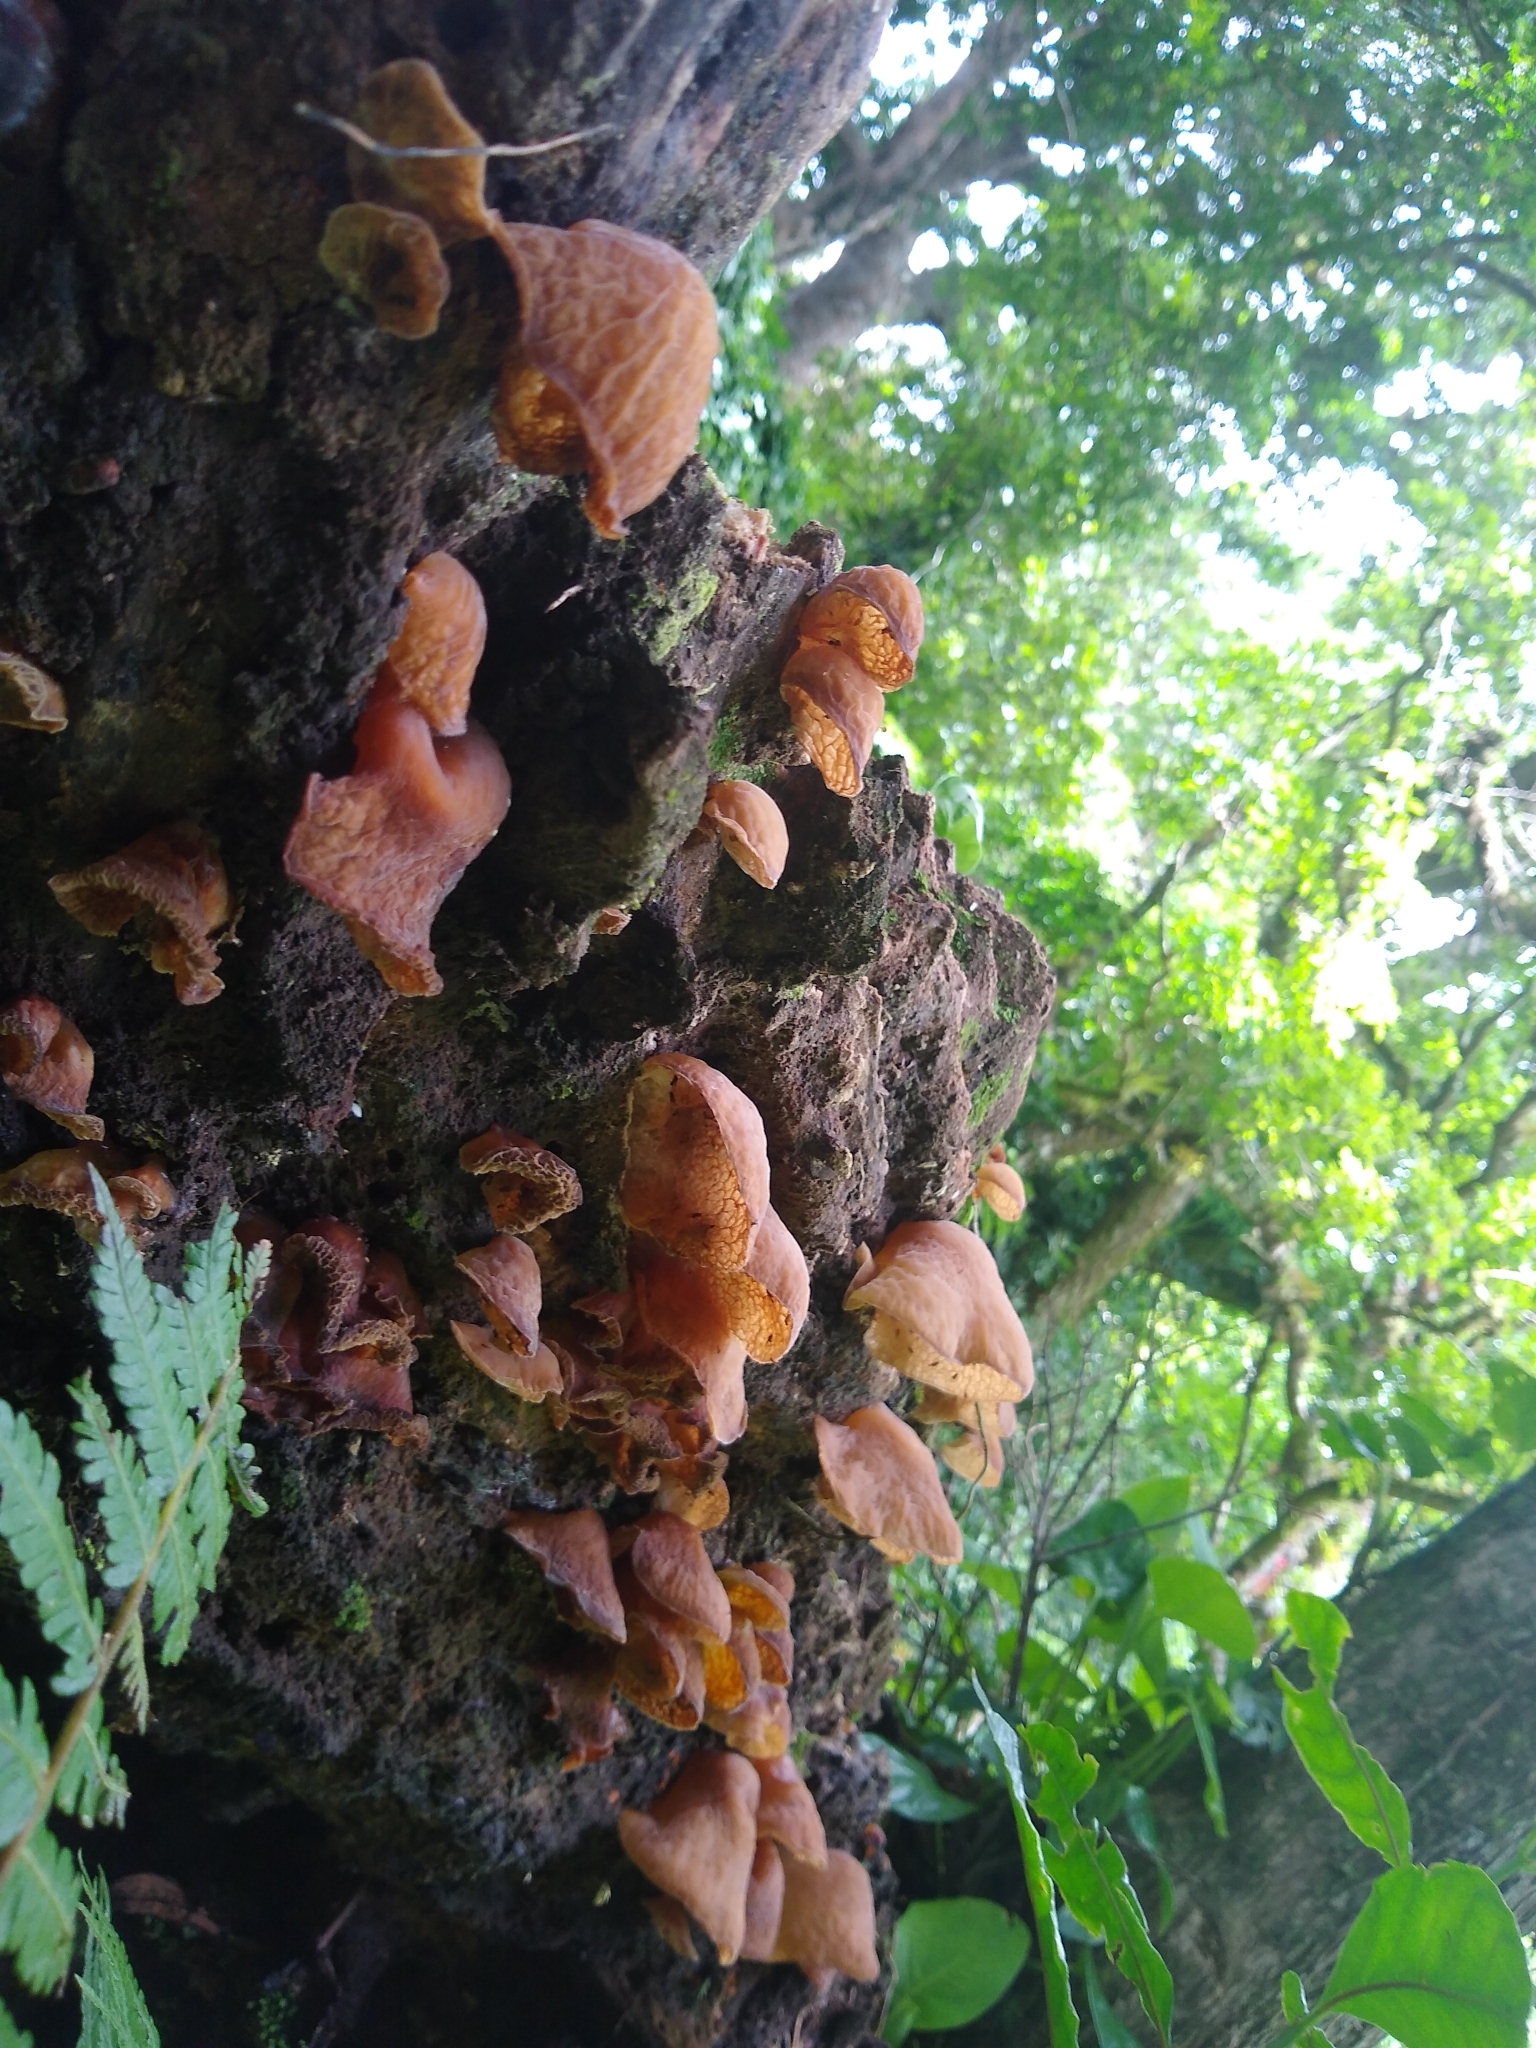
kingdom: Fungi
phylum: Basidiomycota
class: Agaricomycetes
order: Auriculariales
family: Auriculariaceae
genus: Auricularia
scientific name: Auricularia delicata
